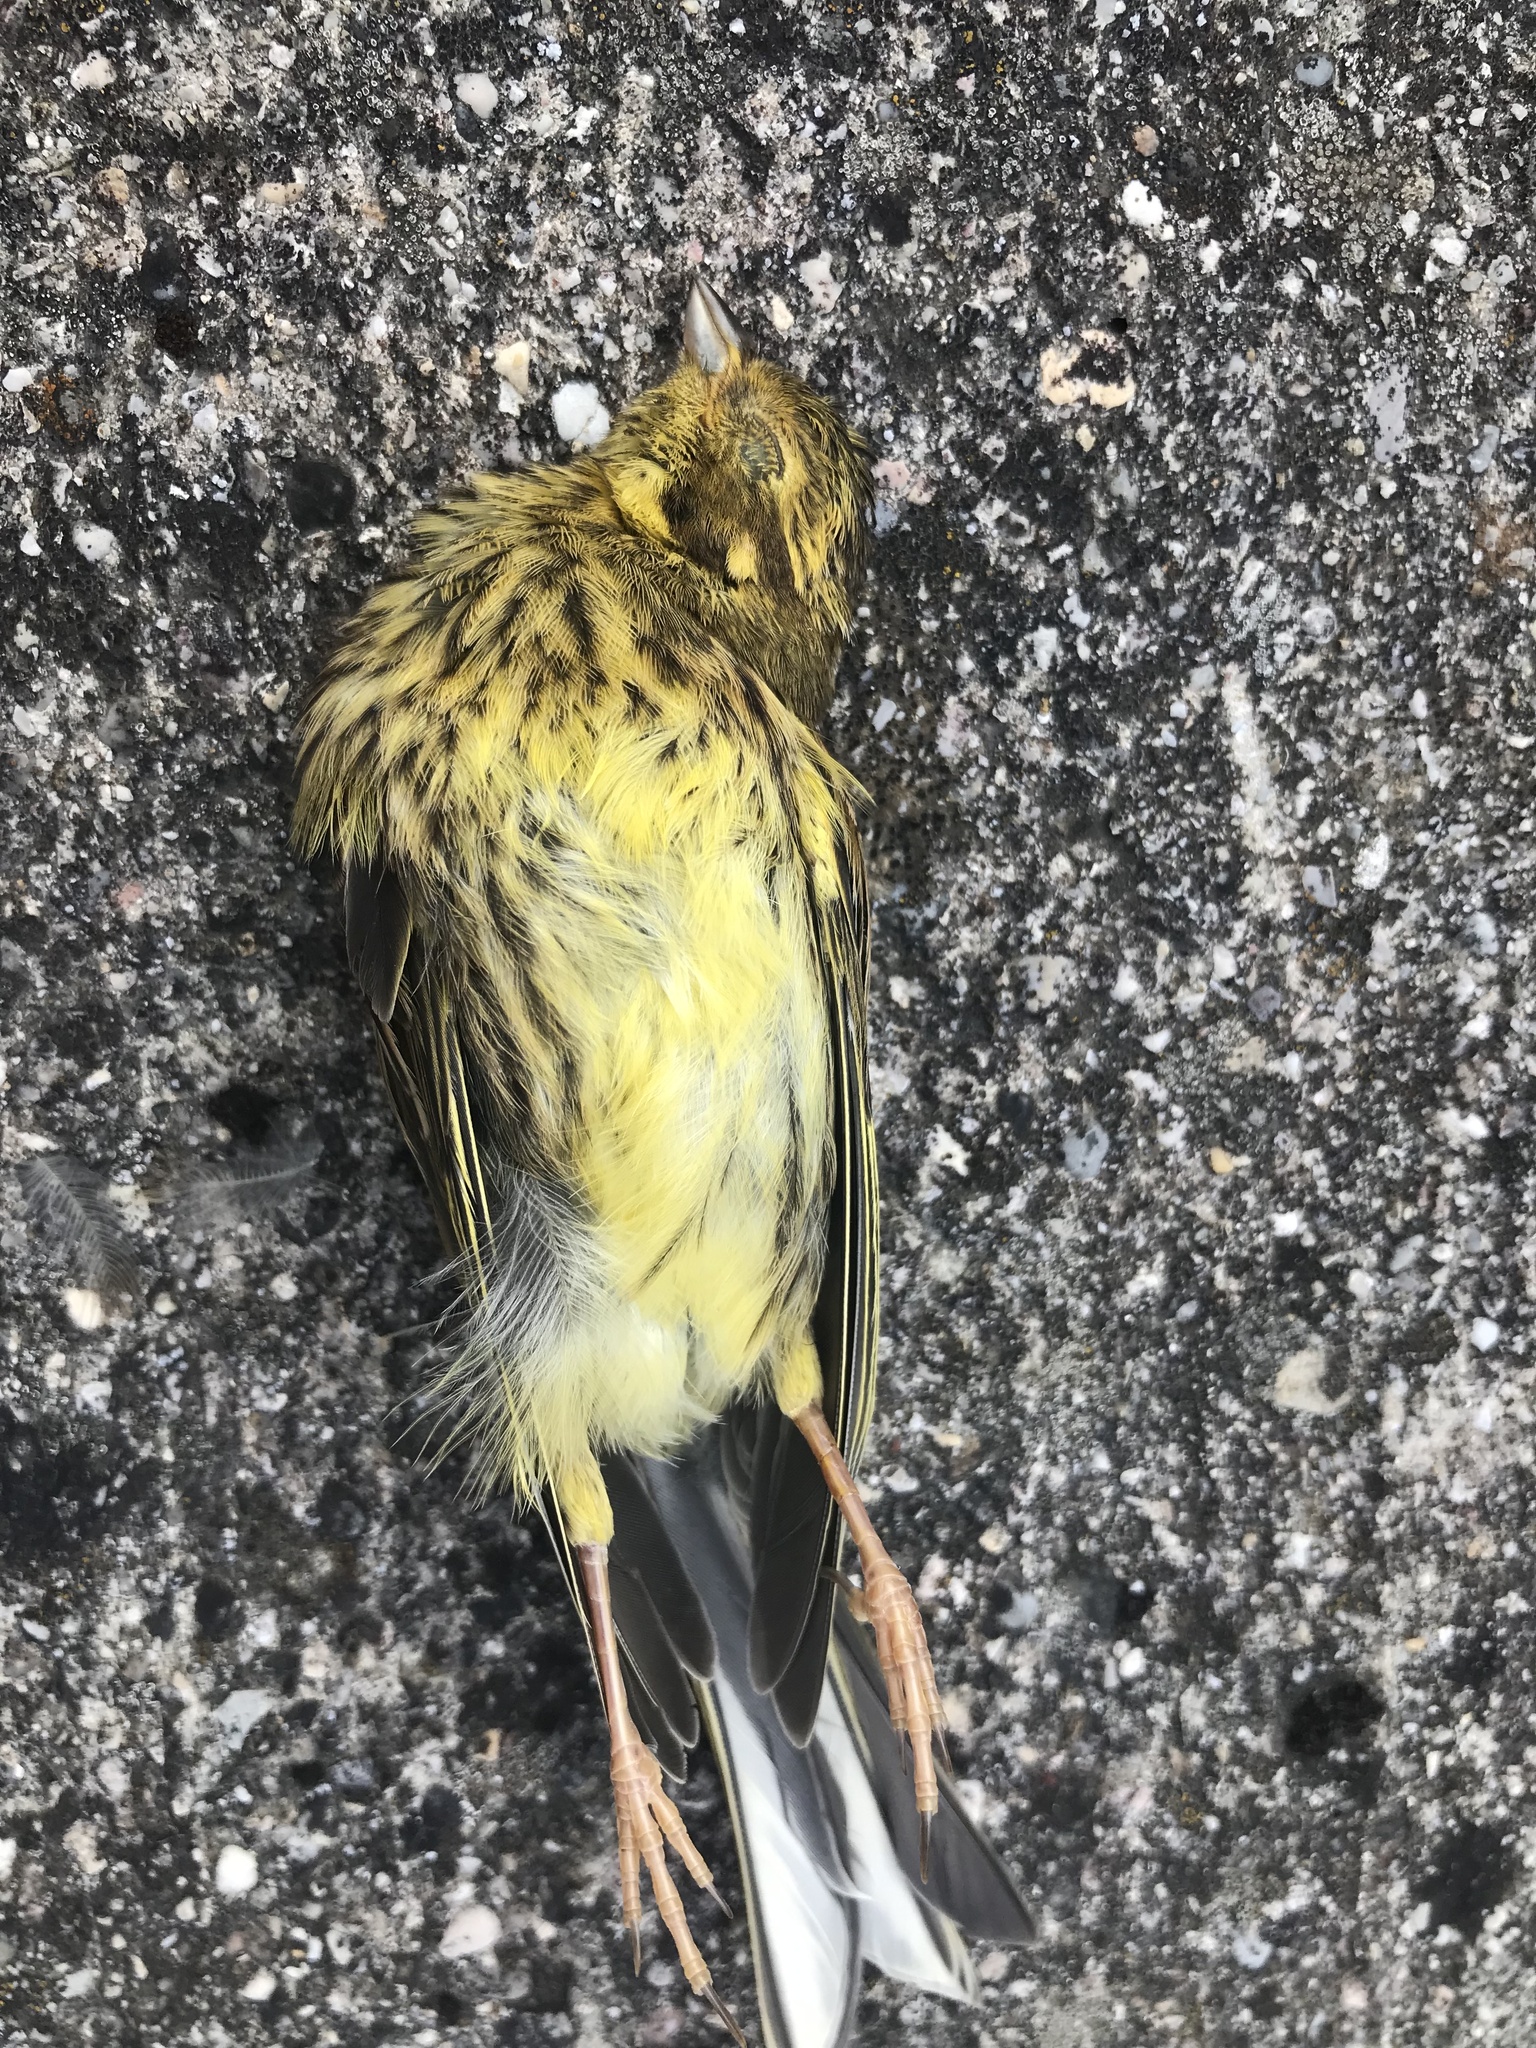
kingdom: Animalia
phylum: Chordata
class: Aves
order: Passeriformes
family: Emberizidae
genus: Emberiza
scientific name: Emberiza citrinella
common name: Yellowhammer
